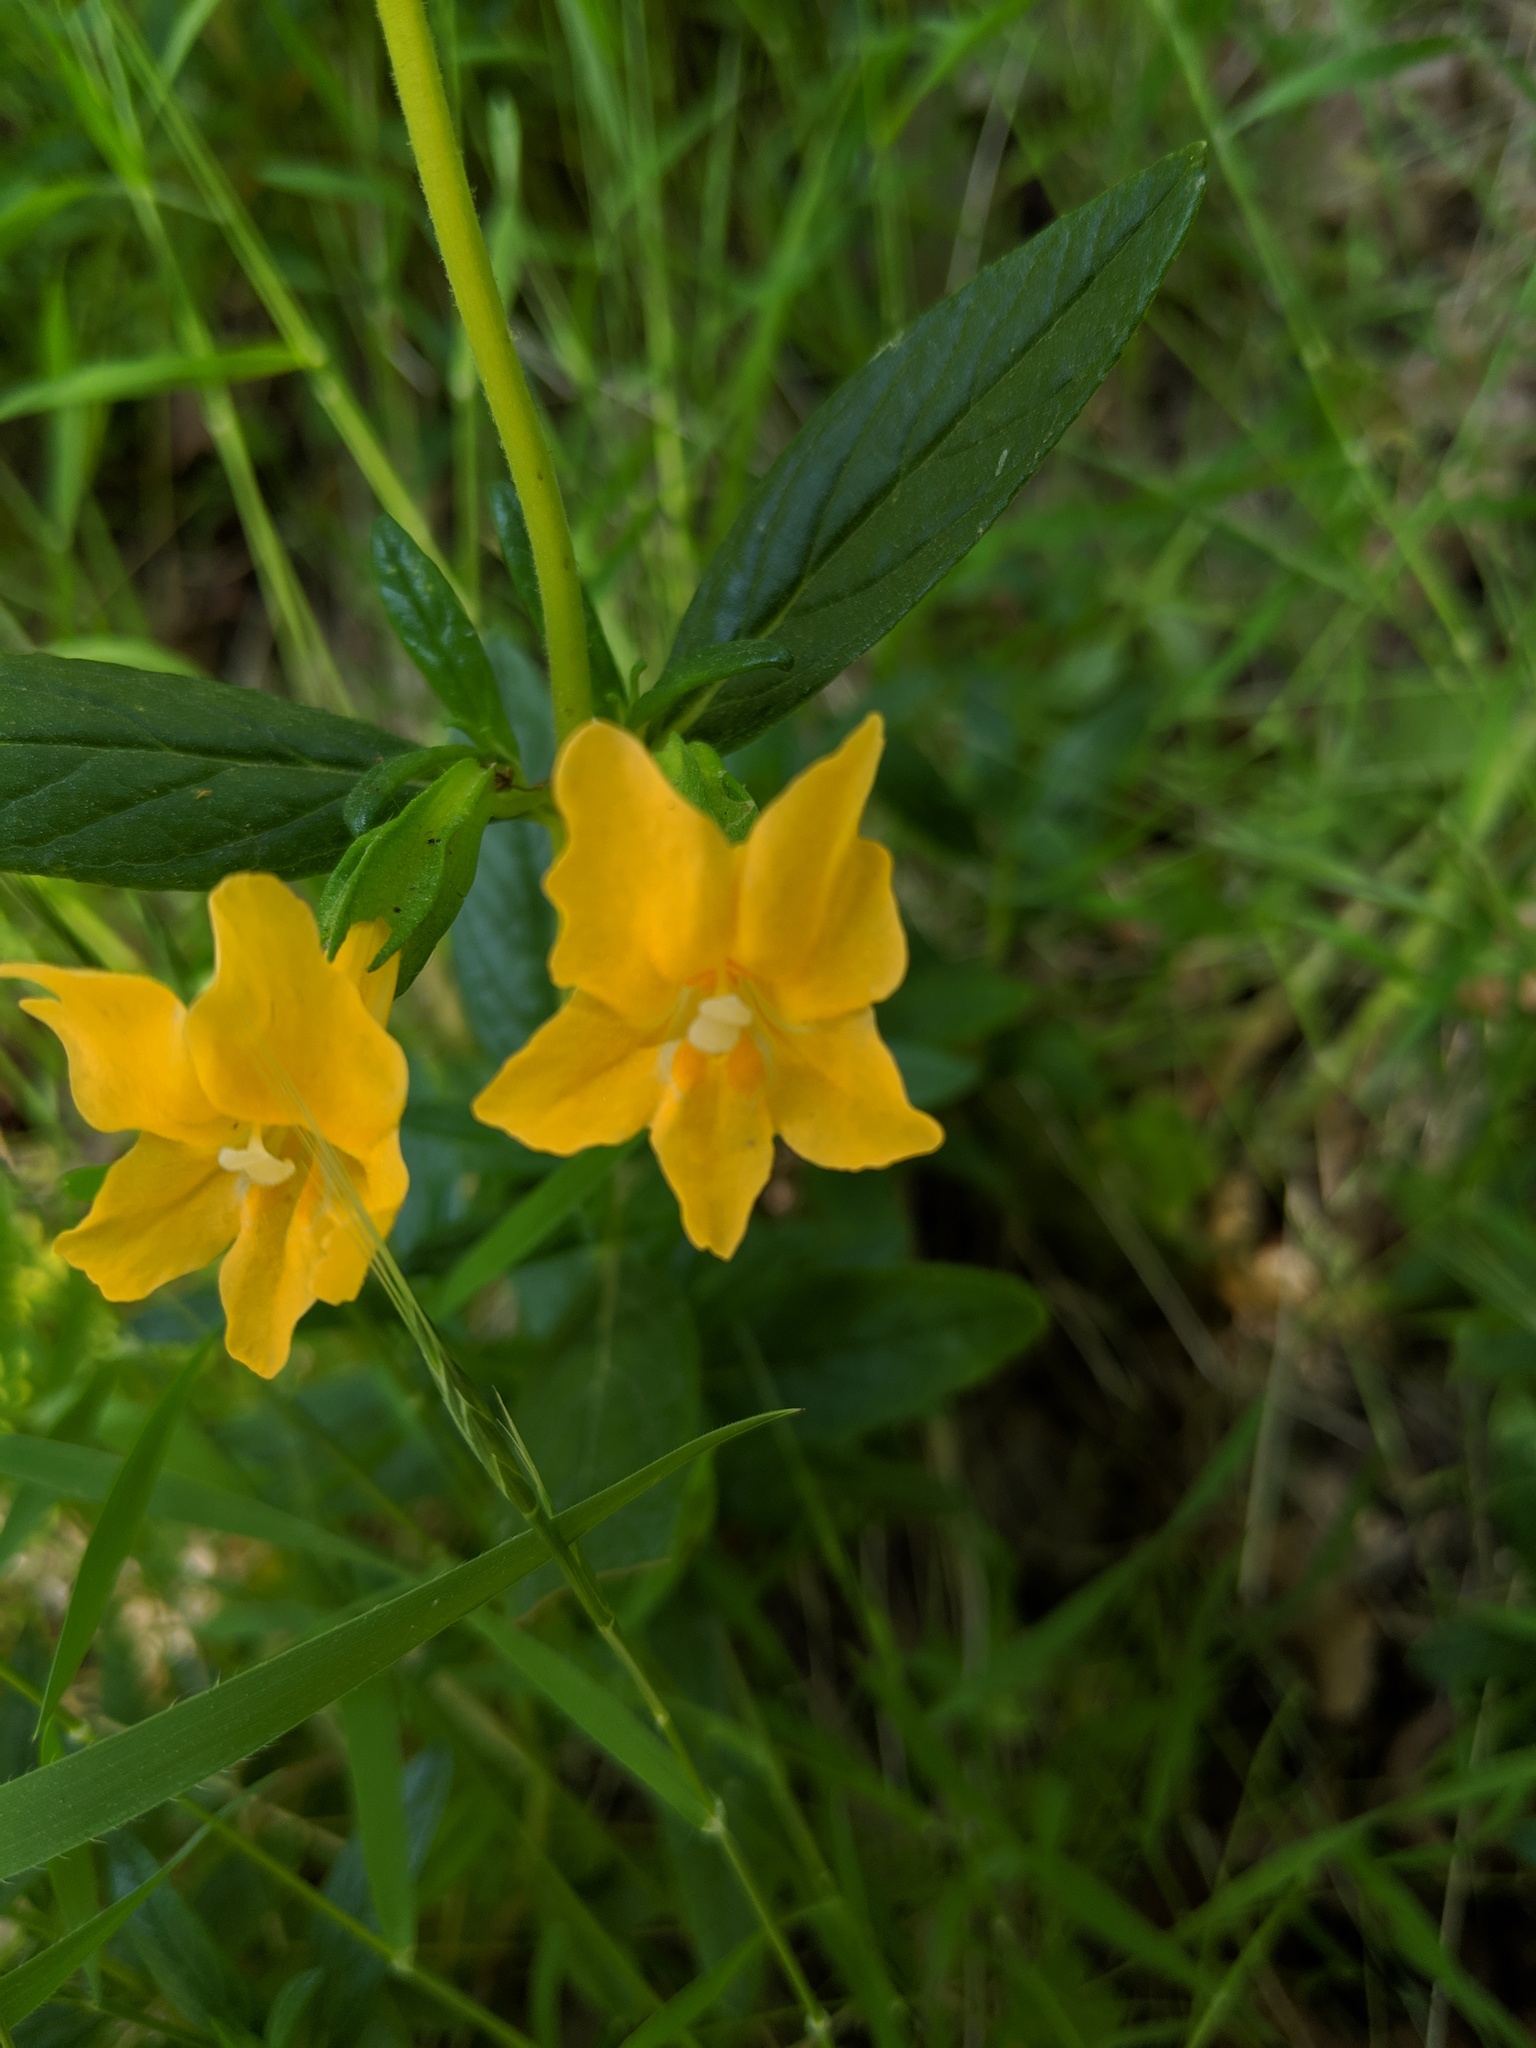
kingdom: Plantae
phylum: Tracheophyta
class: Magnoliopsida
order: Lamiales
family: Phrymaceae
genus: Diplacus
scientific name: Diplacus aurantiacus
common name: Bush monkey-flower
